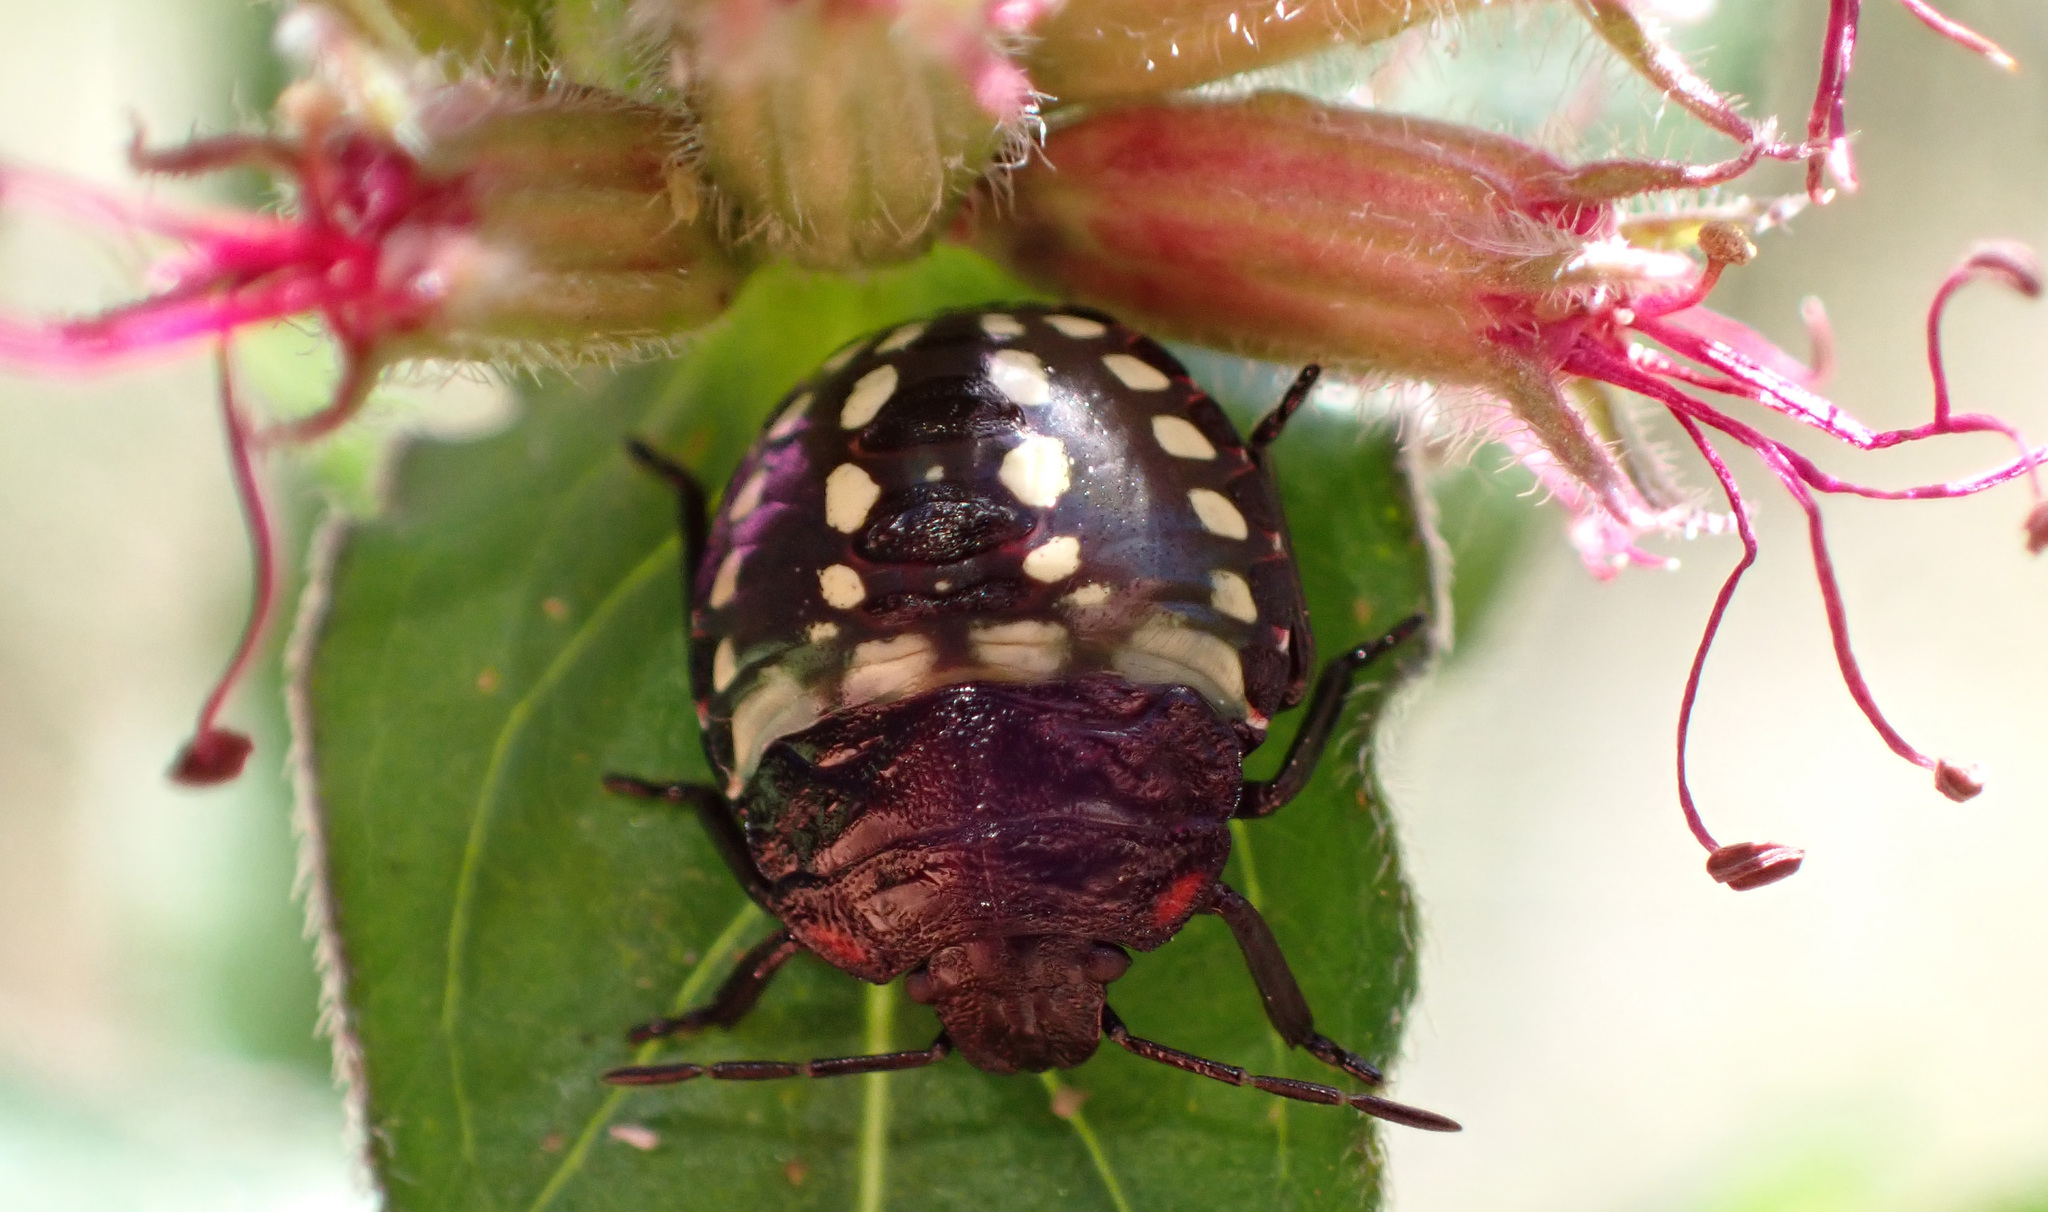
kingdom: Animalia
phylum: Arthropoda
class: Insecta
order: Hemiptera
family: Pentatomidae
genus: Nezara
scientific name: Nezara viridula
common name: Southern green stink bug
